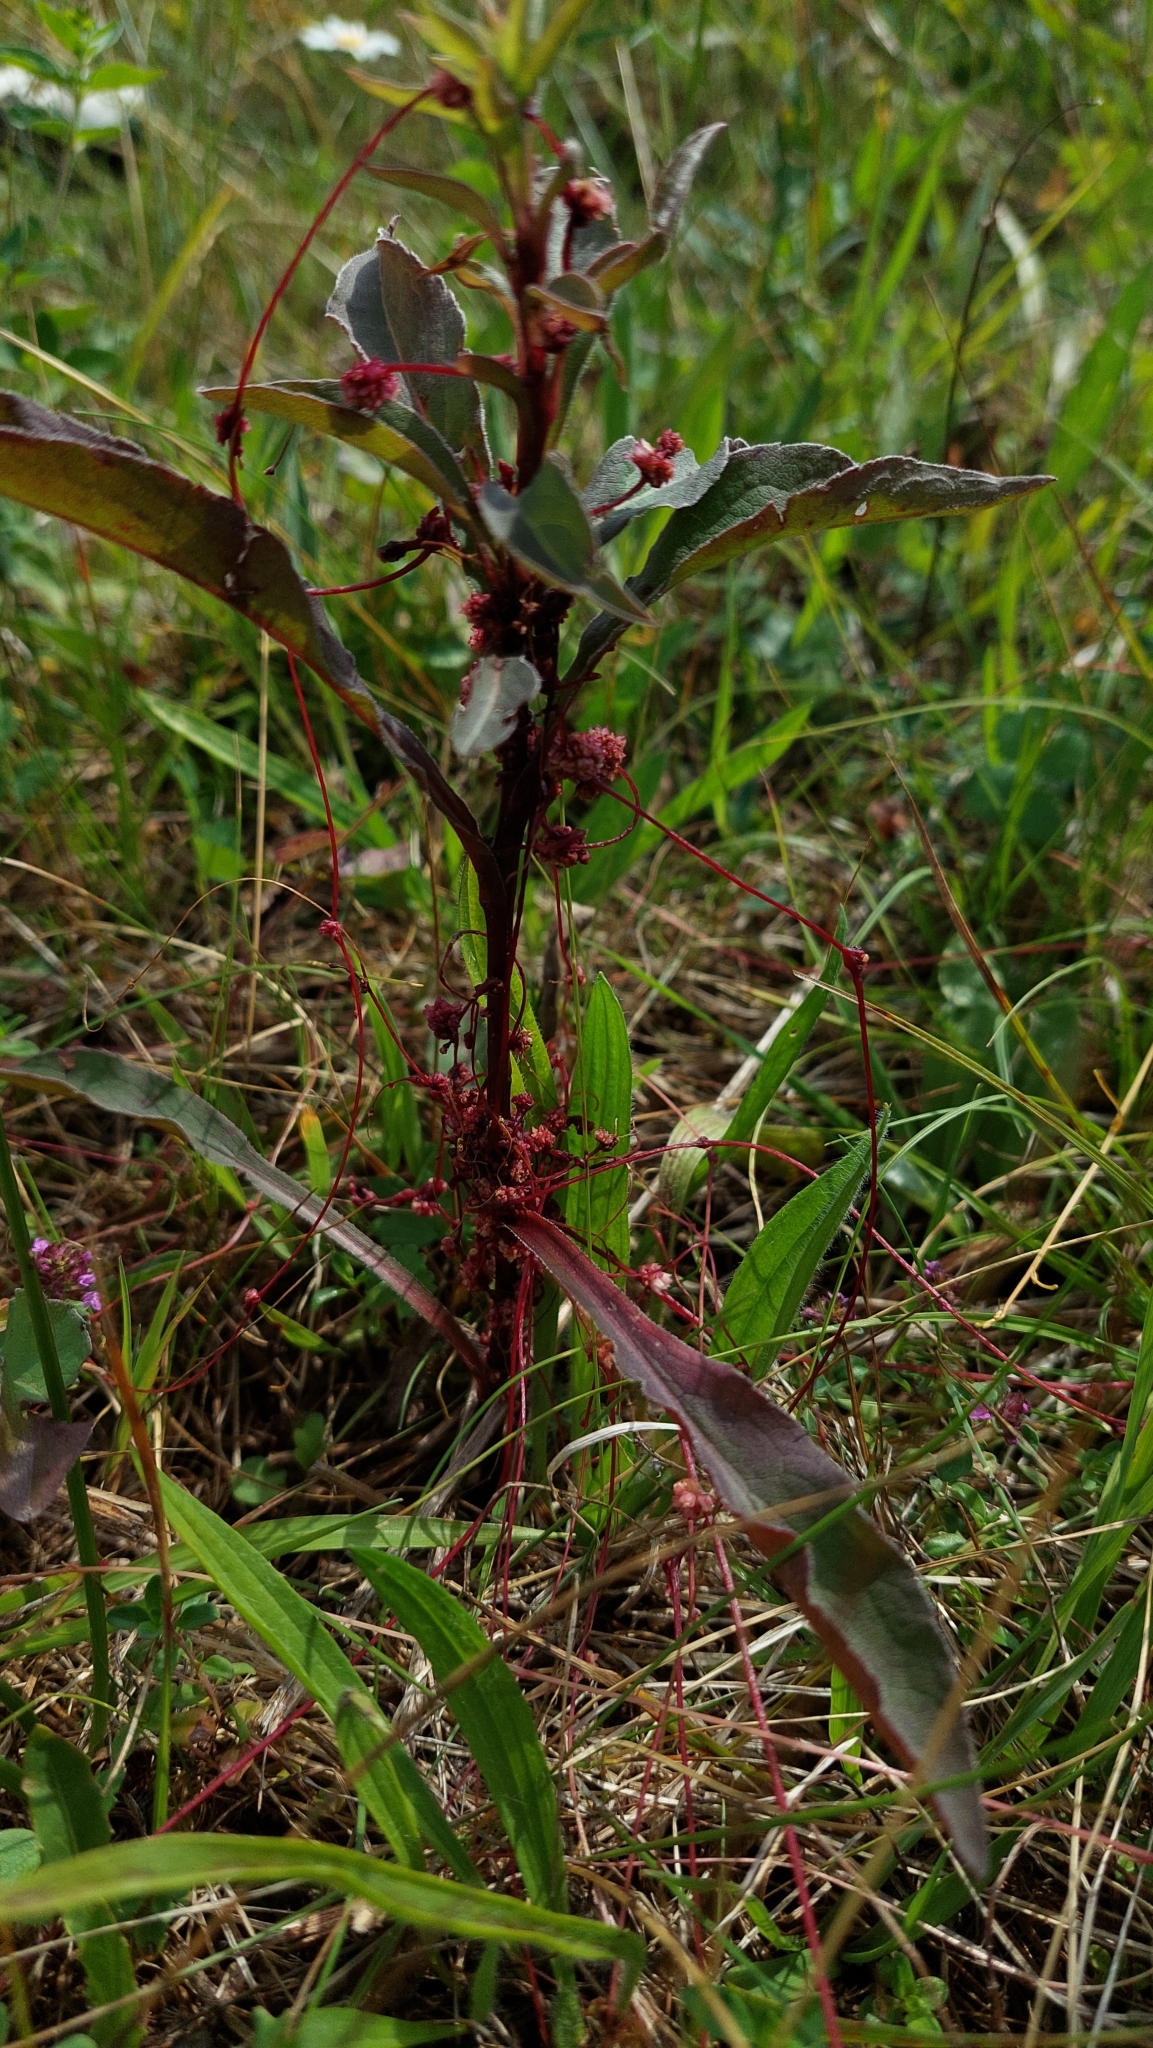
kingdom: Plantae
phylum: Tracheophyta
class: Magnoliopsida
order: Solanales
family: Convolvulaceae
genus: Cuscuta
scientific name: Cuscuta epithymum
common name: Clover dodder
